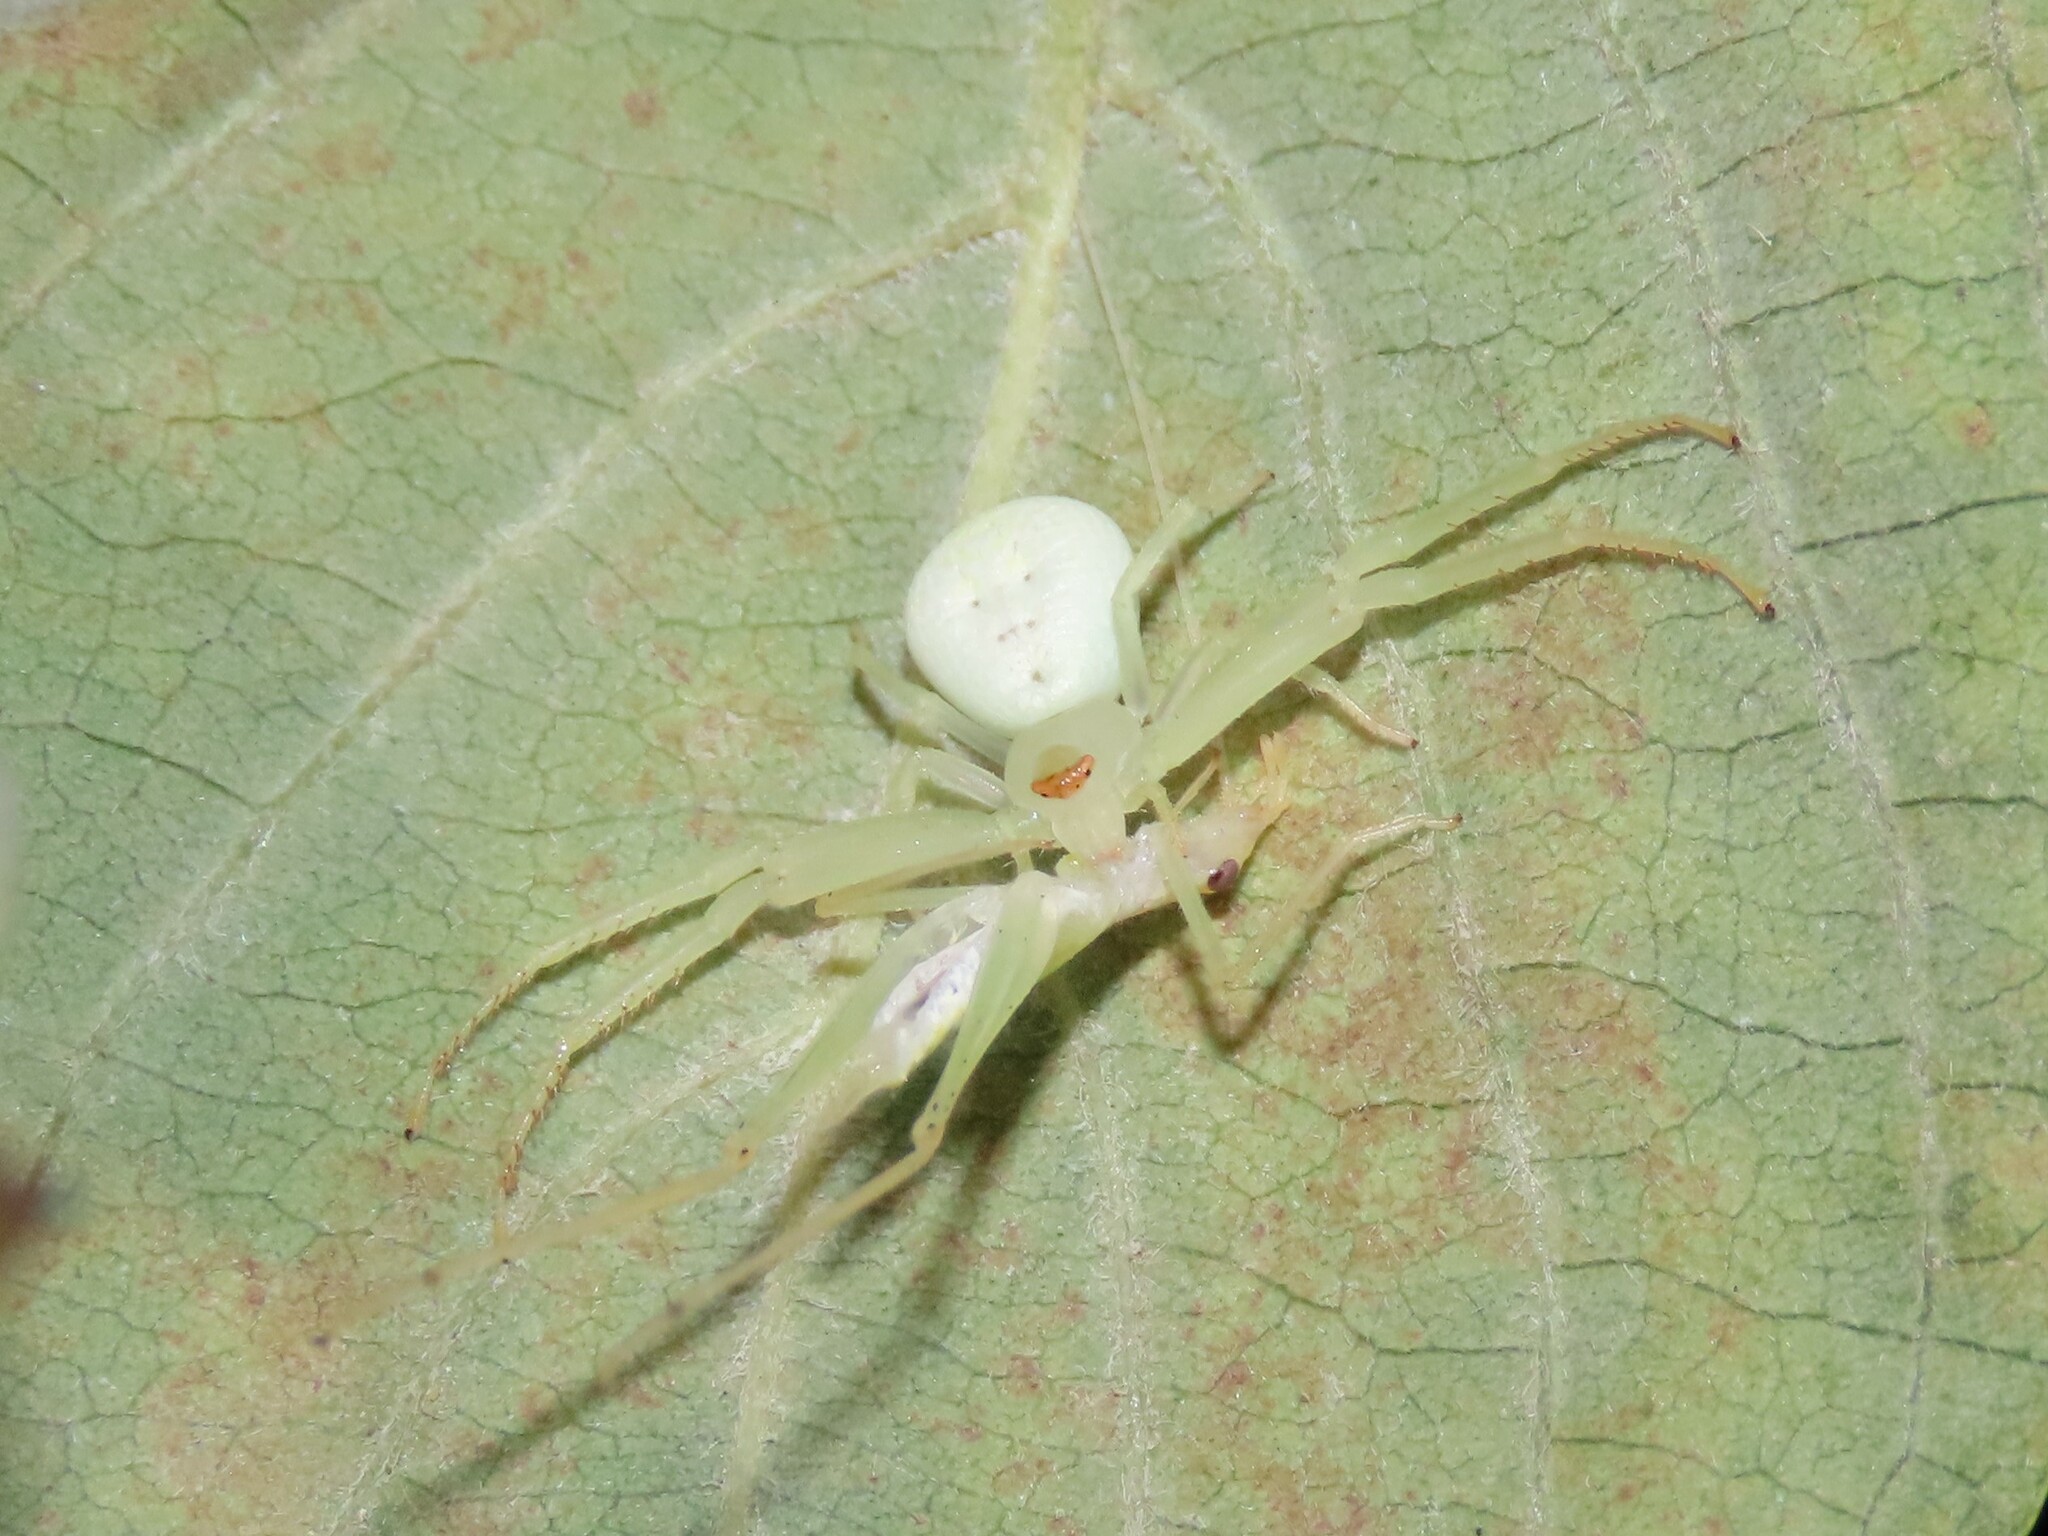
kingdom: Animalia
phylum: Arthropoda
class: Arachnida
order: Araneae
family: Thomisidae
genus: Misumessus
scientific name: Misumessus oblongus
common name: American green crab spider
